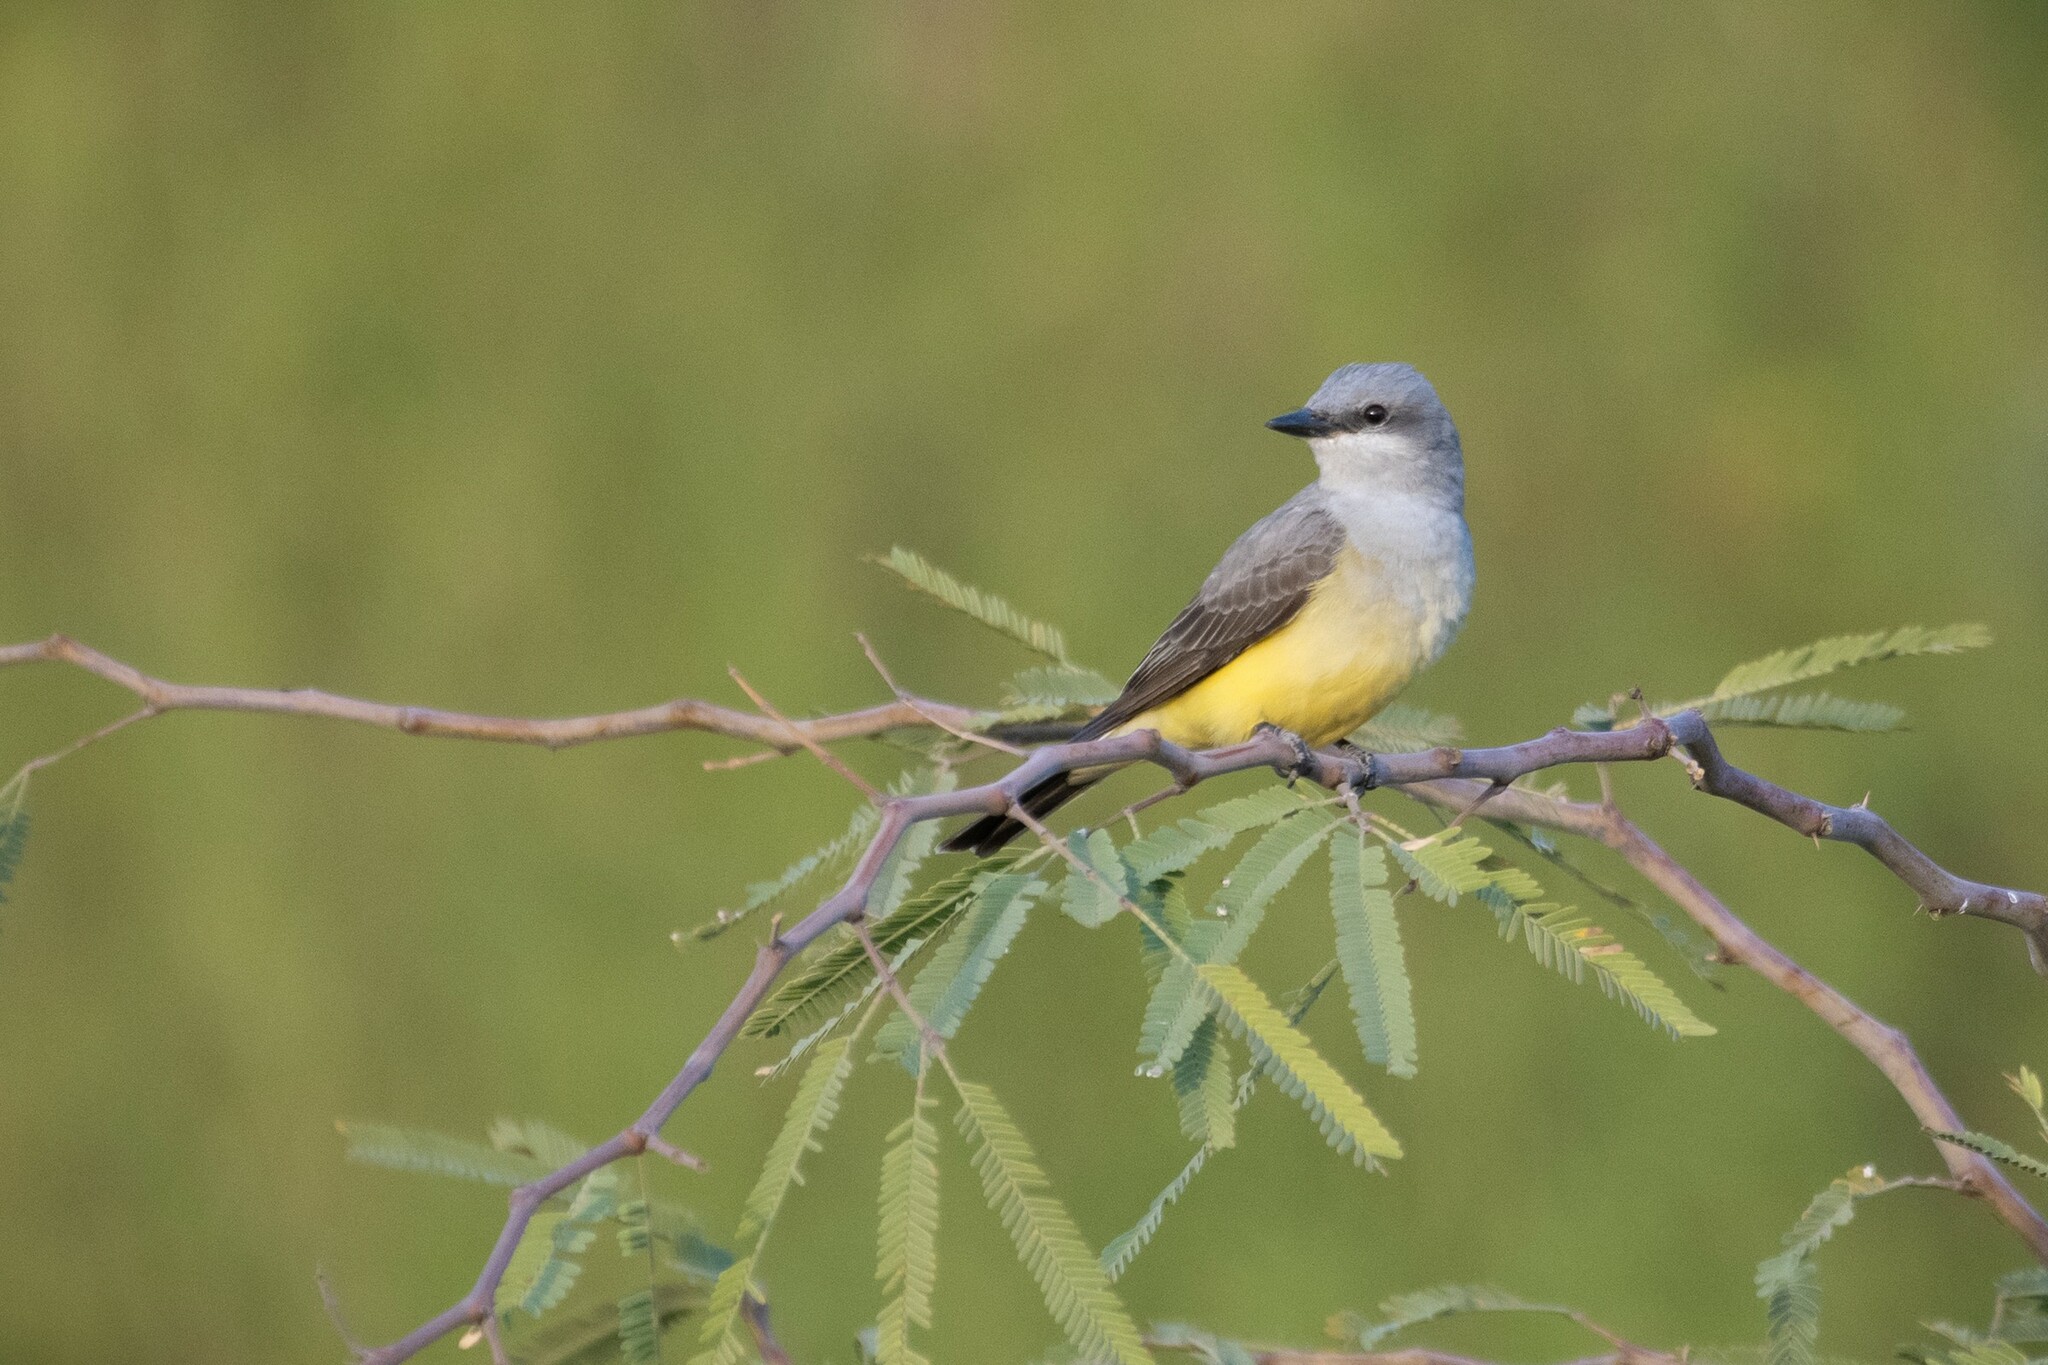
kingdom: Animalia
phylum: Chordata
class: Aves
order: Passeriformes
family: Tyrannidae
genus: Tyrannus
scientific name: Tyrannus verticalis
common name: Western kingbird
